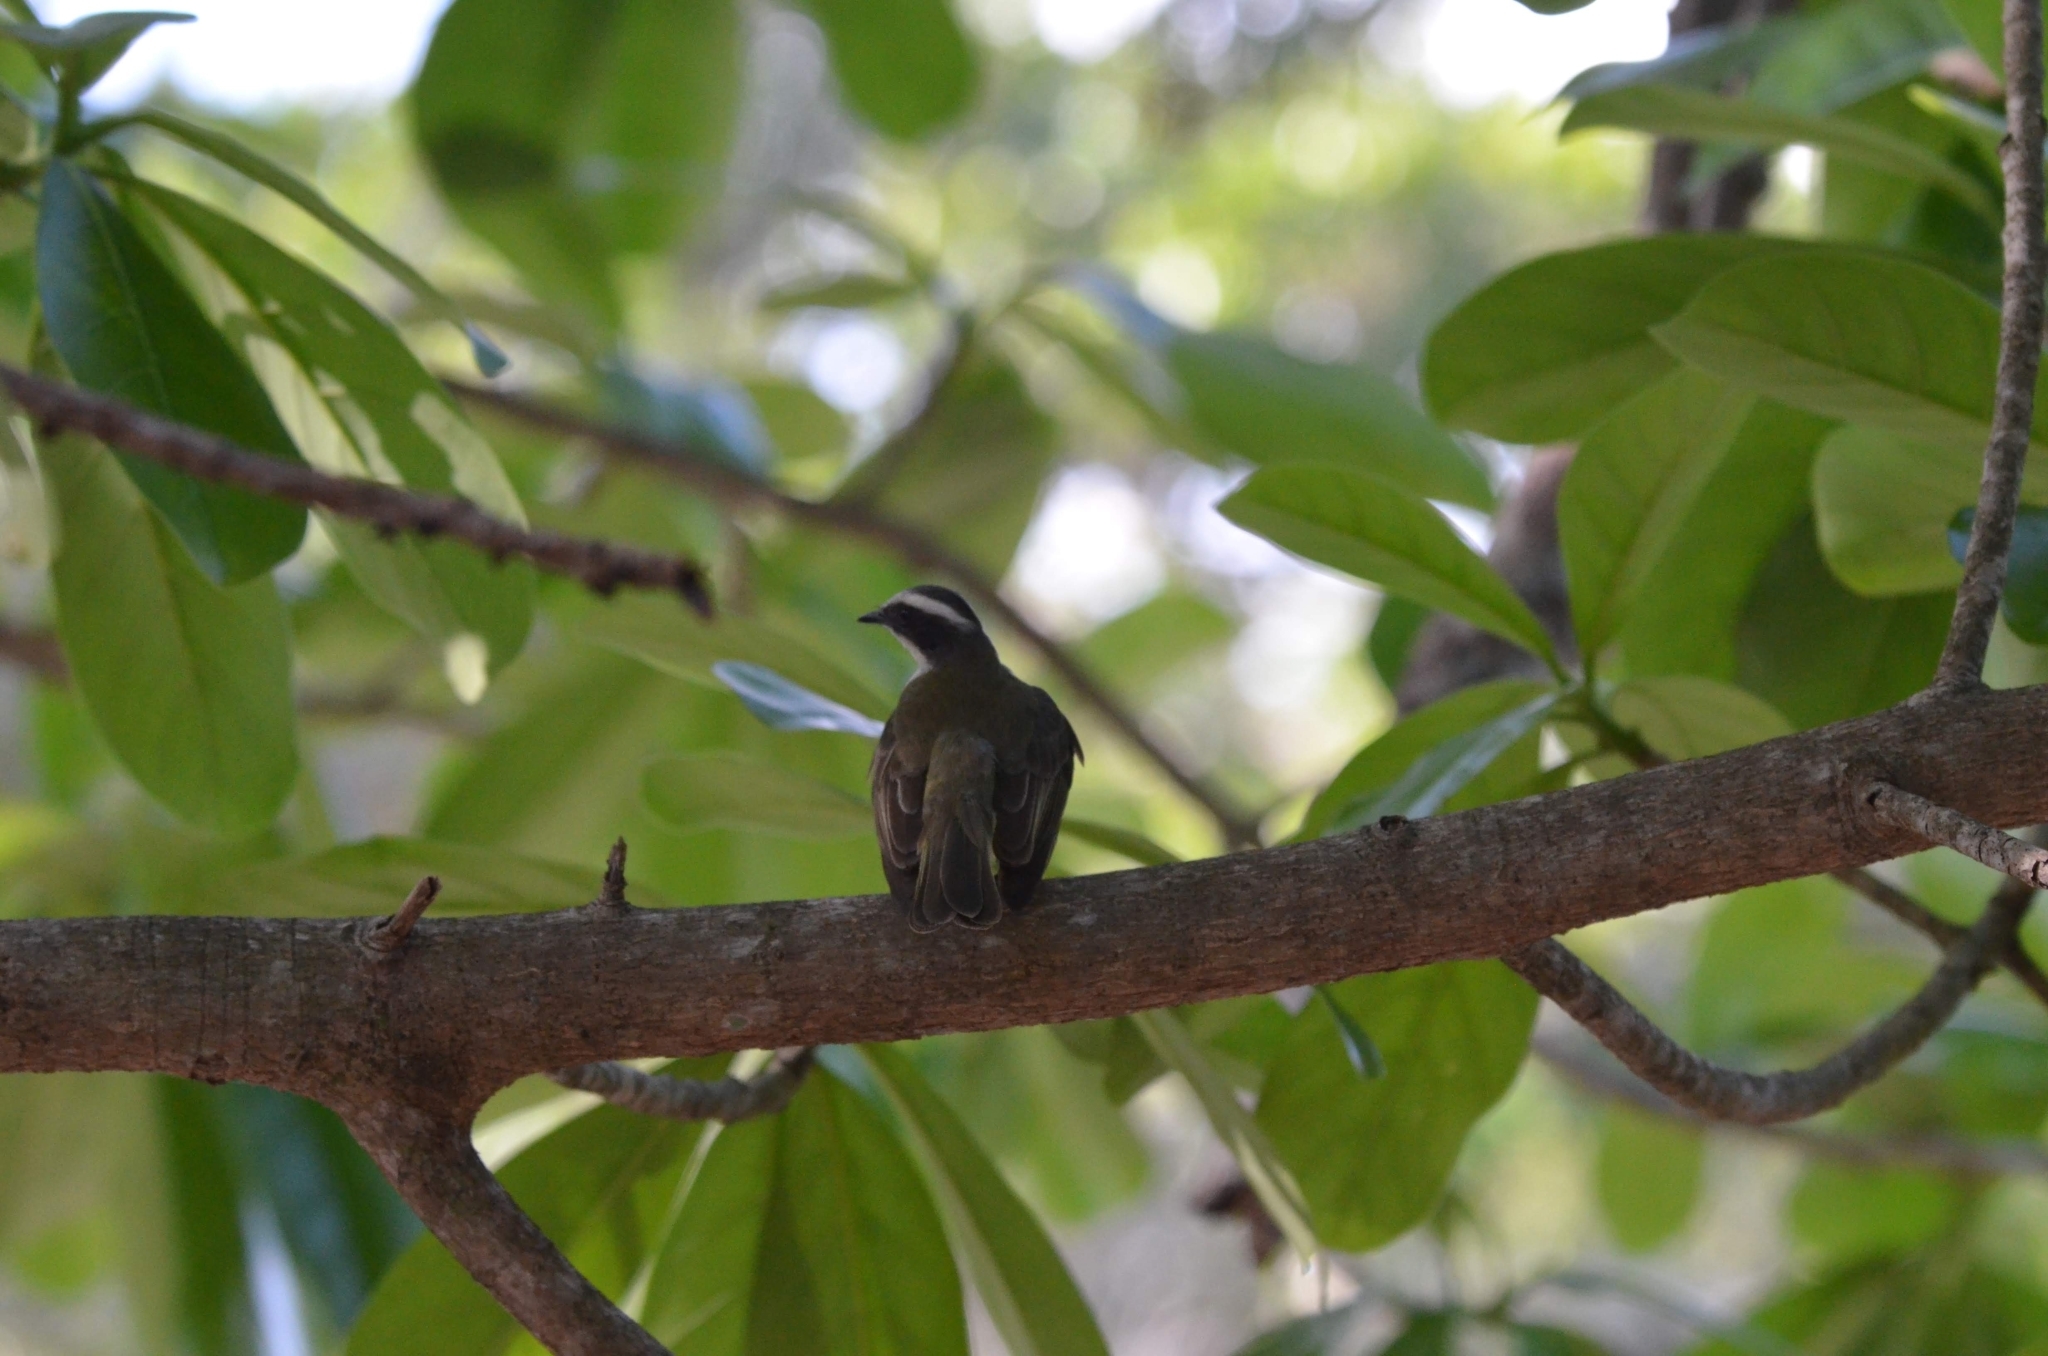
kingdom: Animalia
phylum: Chordata
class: Aves
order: Passeriformes
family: Tyrannidae
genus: Myiozetetes
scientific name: Myiozetetes similis
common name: Social flycatcher
